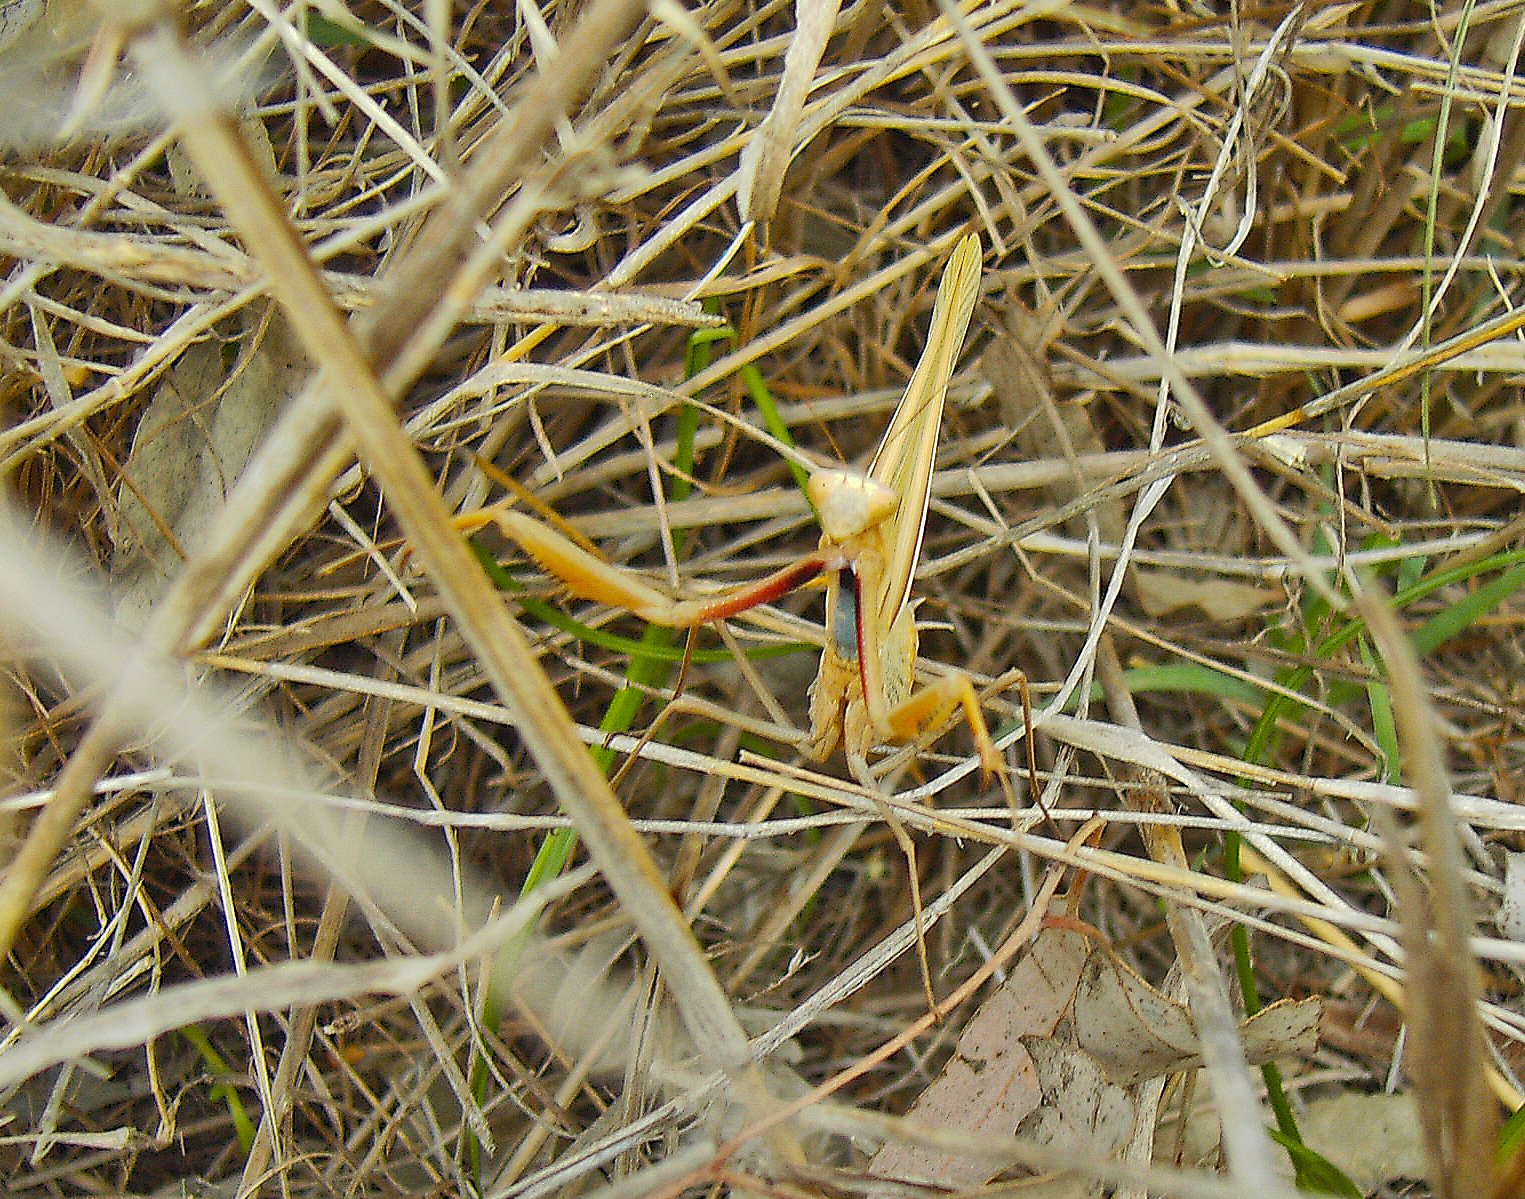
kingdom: Animalia
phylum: Arthropoda
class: Insecta
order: Mantodea
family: Mantidae
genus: Mantis
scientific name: Mantis octospilota
